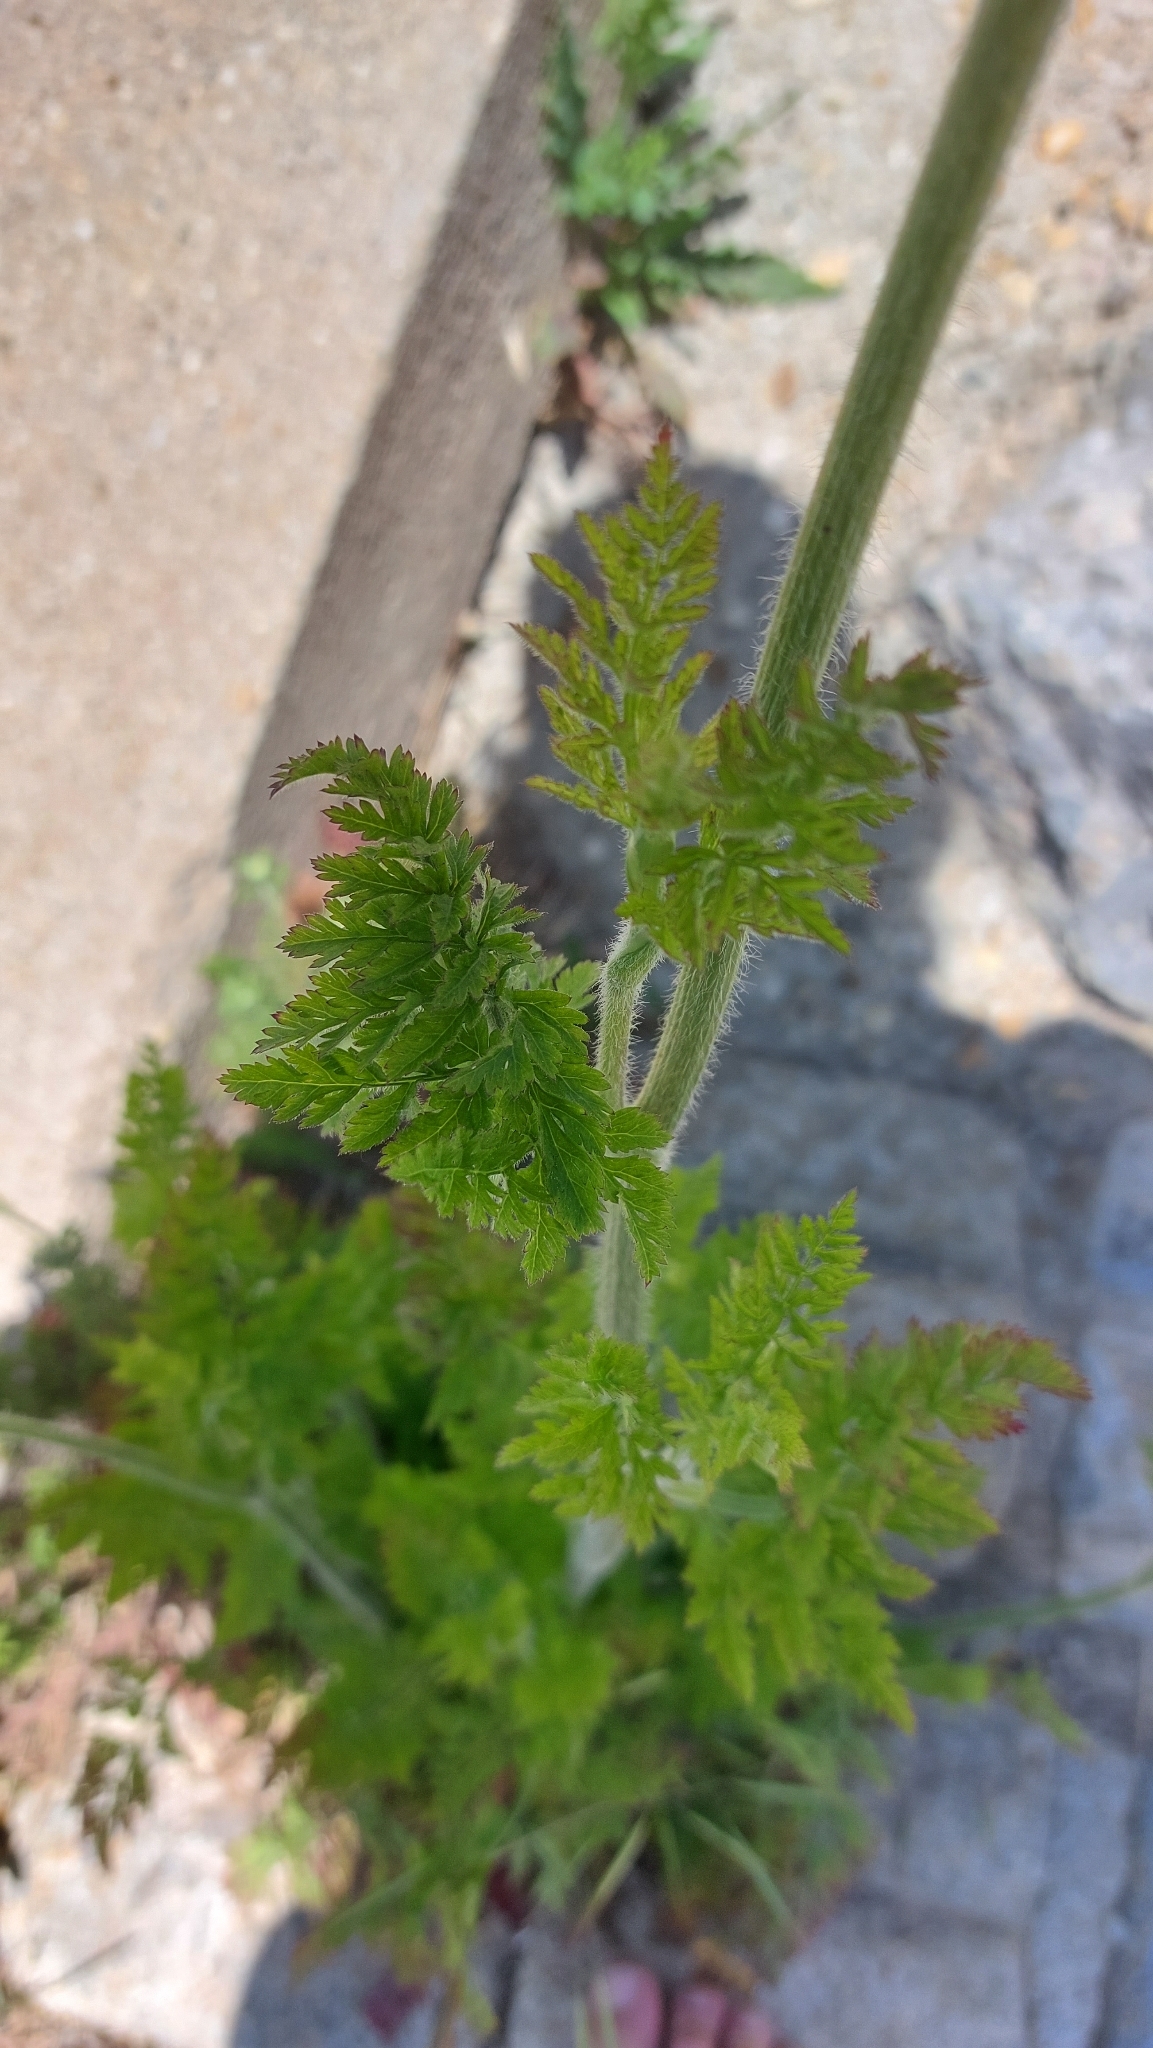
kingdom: Plantae
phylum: Tracheophyta
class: Magnoliopsida
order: Apiales
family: Apiaceae
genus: Daucus
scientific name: Daucus carota
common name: Wild carrot
